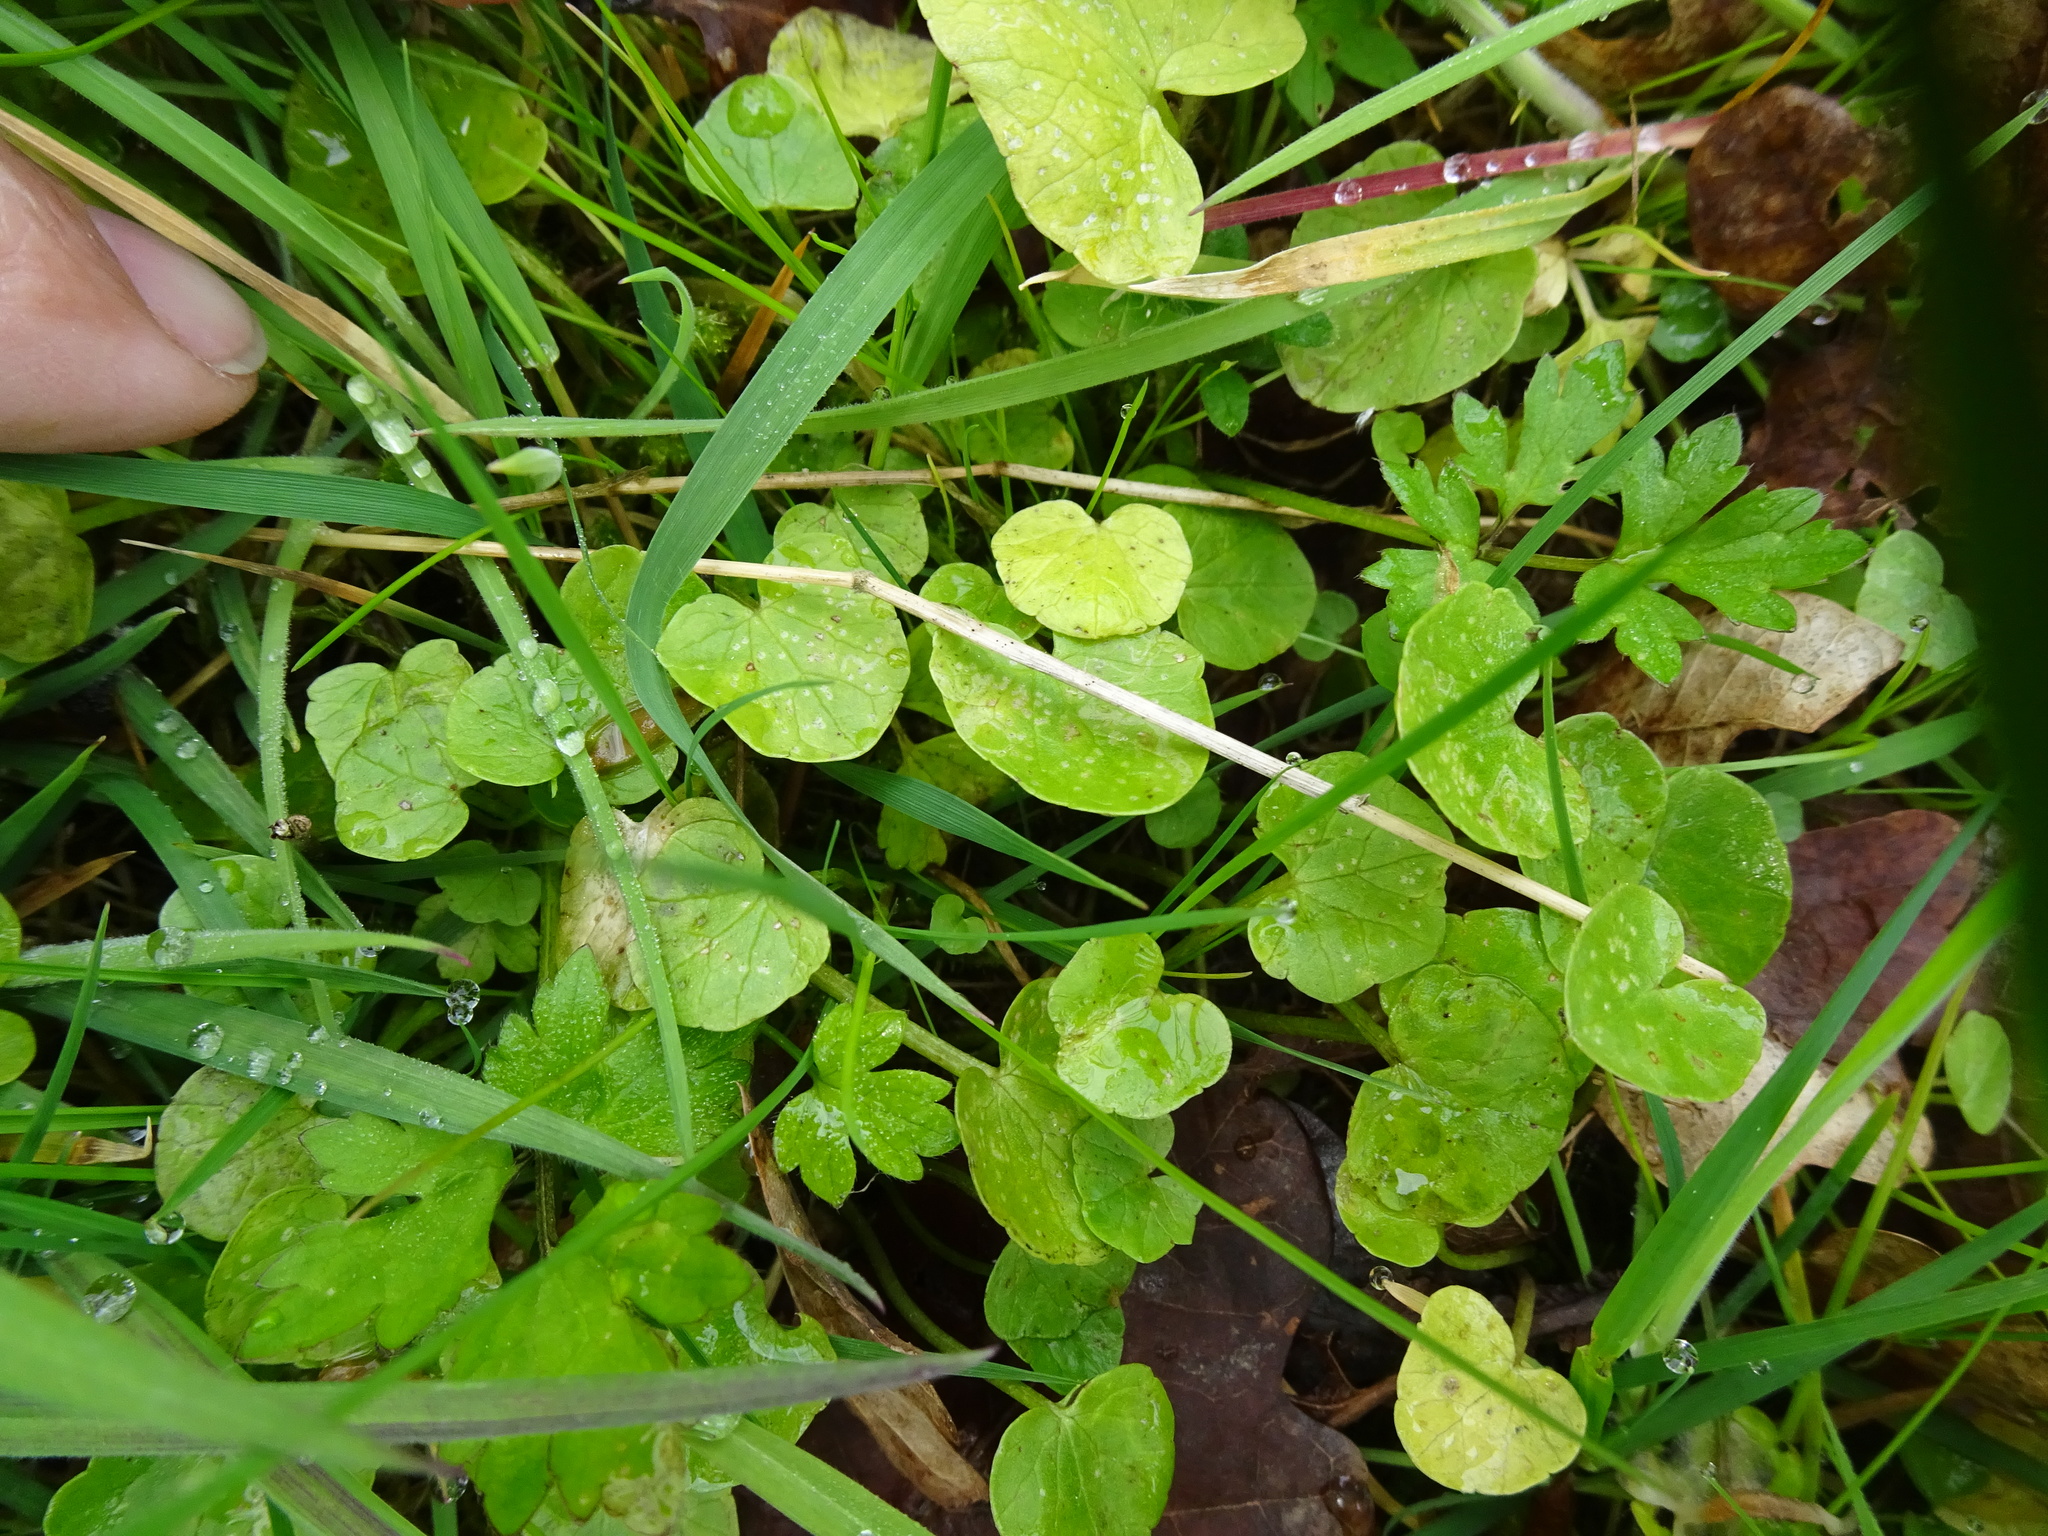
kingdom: Plantae
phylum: Tracheophyta
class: Magnoliopsida
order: Ranunculales
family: Ranunculaceae
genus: Ficaria
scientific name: Ficaria verna
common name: Lesser celandine
